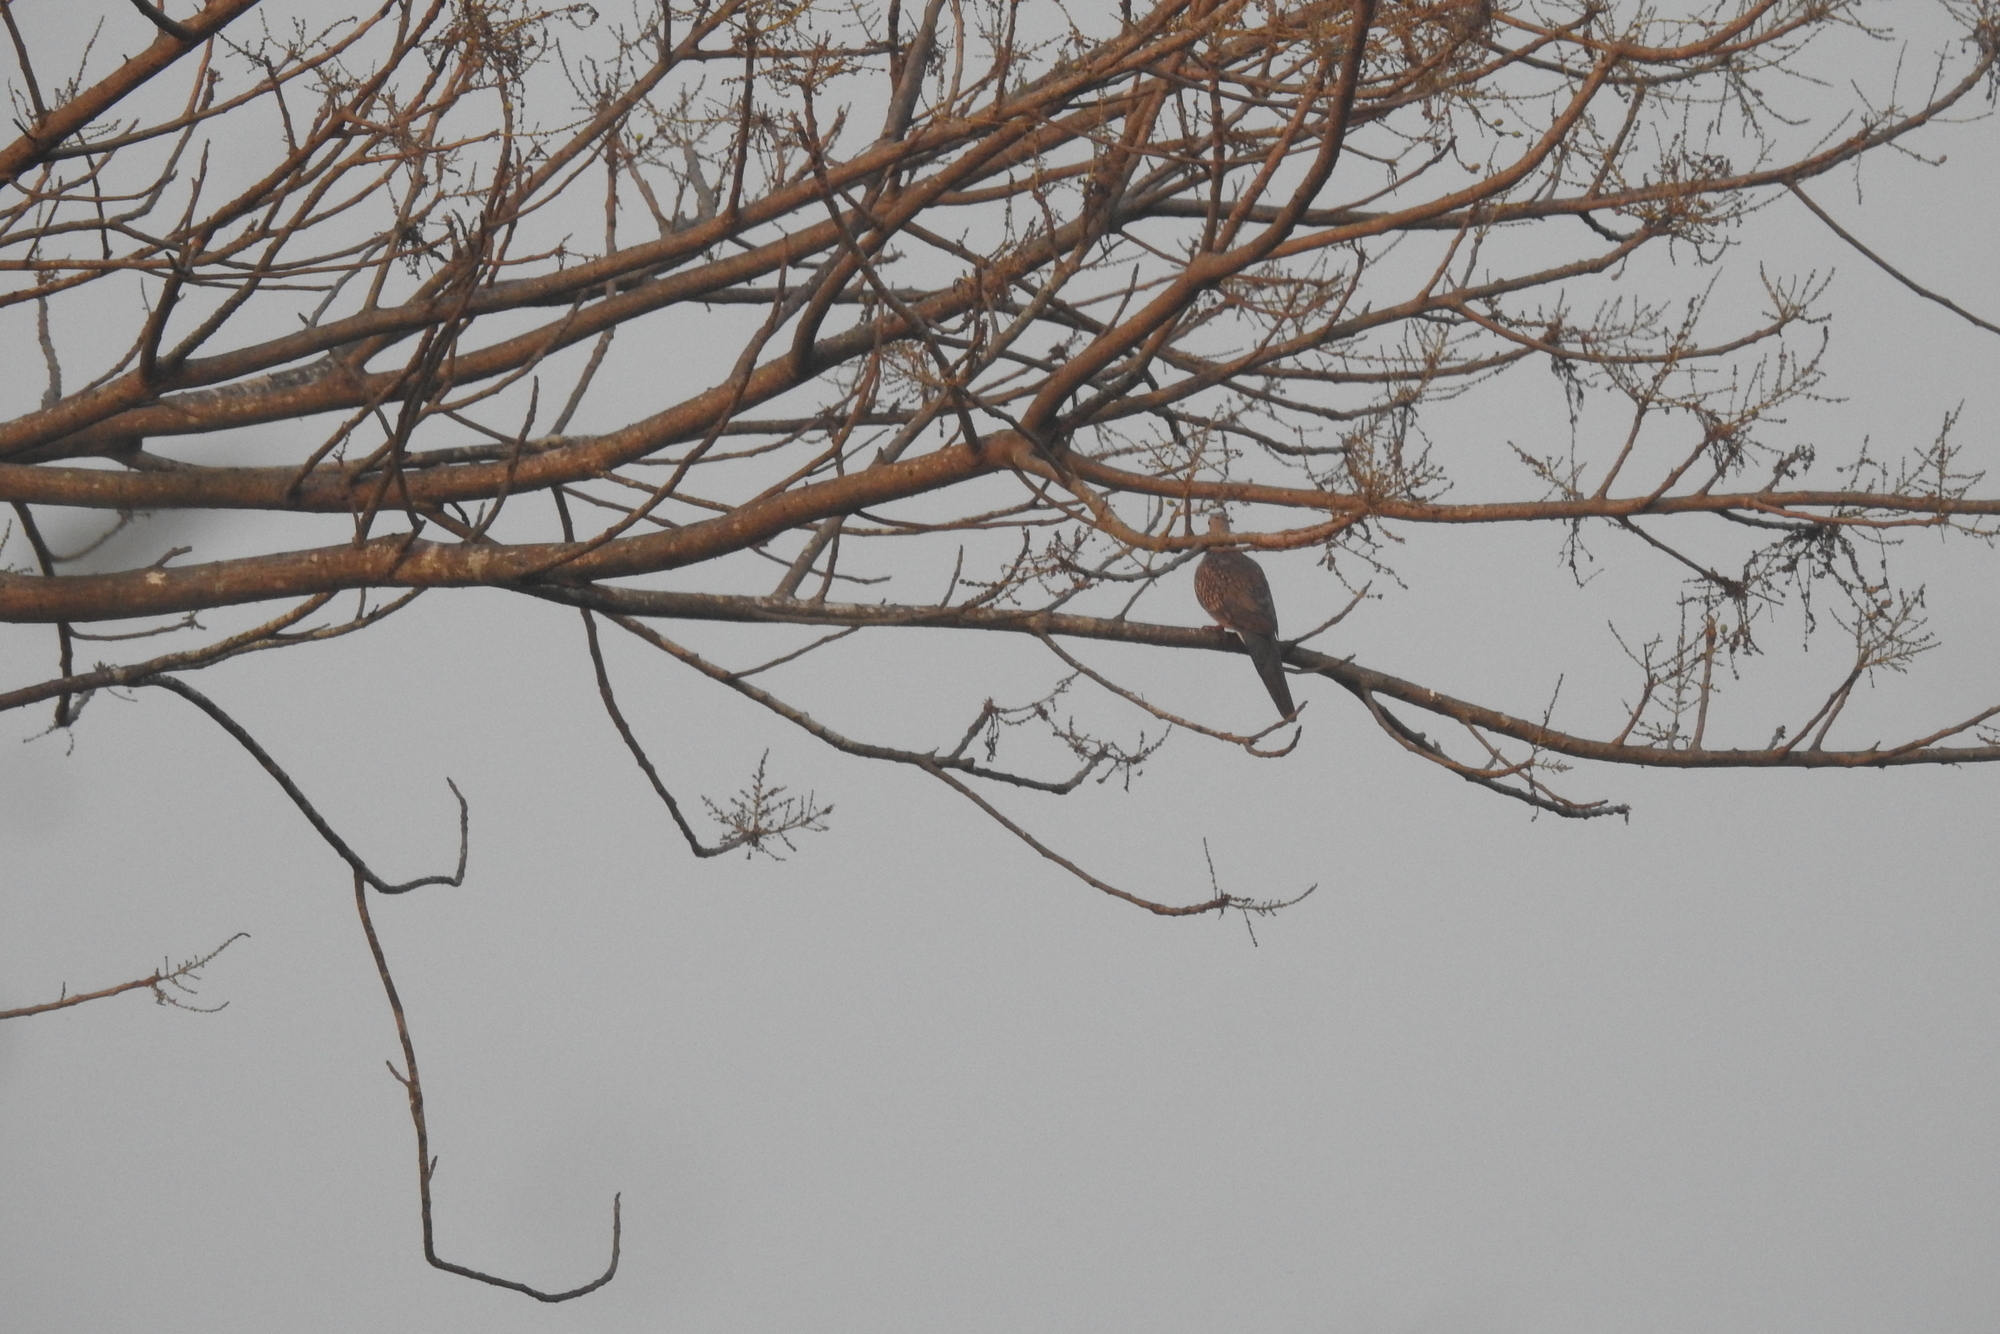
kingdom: Animalia
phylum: Chordata
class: Aves
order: Columbiformes
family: Columbidae
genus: Spilopelia
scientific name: Spilopelia chinensis
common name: Spotted dove
